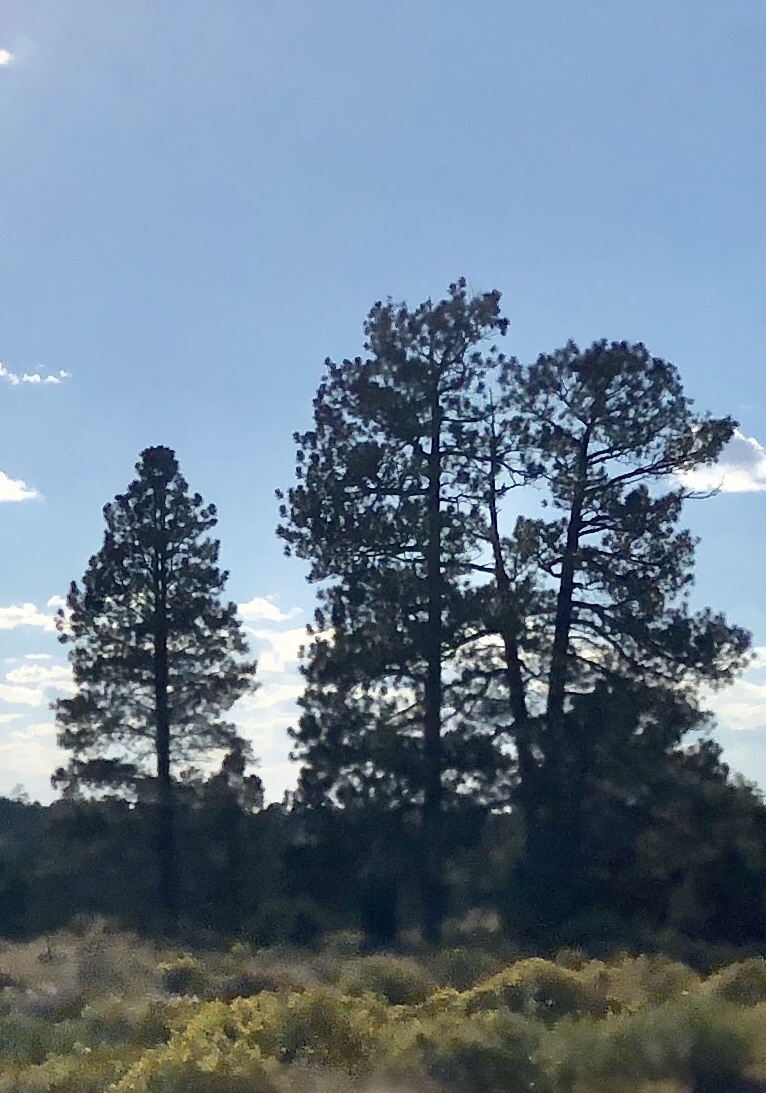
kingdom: Plantae
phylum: Tracheophyta
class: Pinopsida
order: Pinales
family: Pinaceae
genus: Pinus
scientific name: Pinus ponderosa
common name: Western yellow-pine
